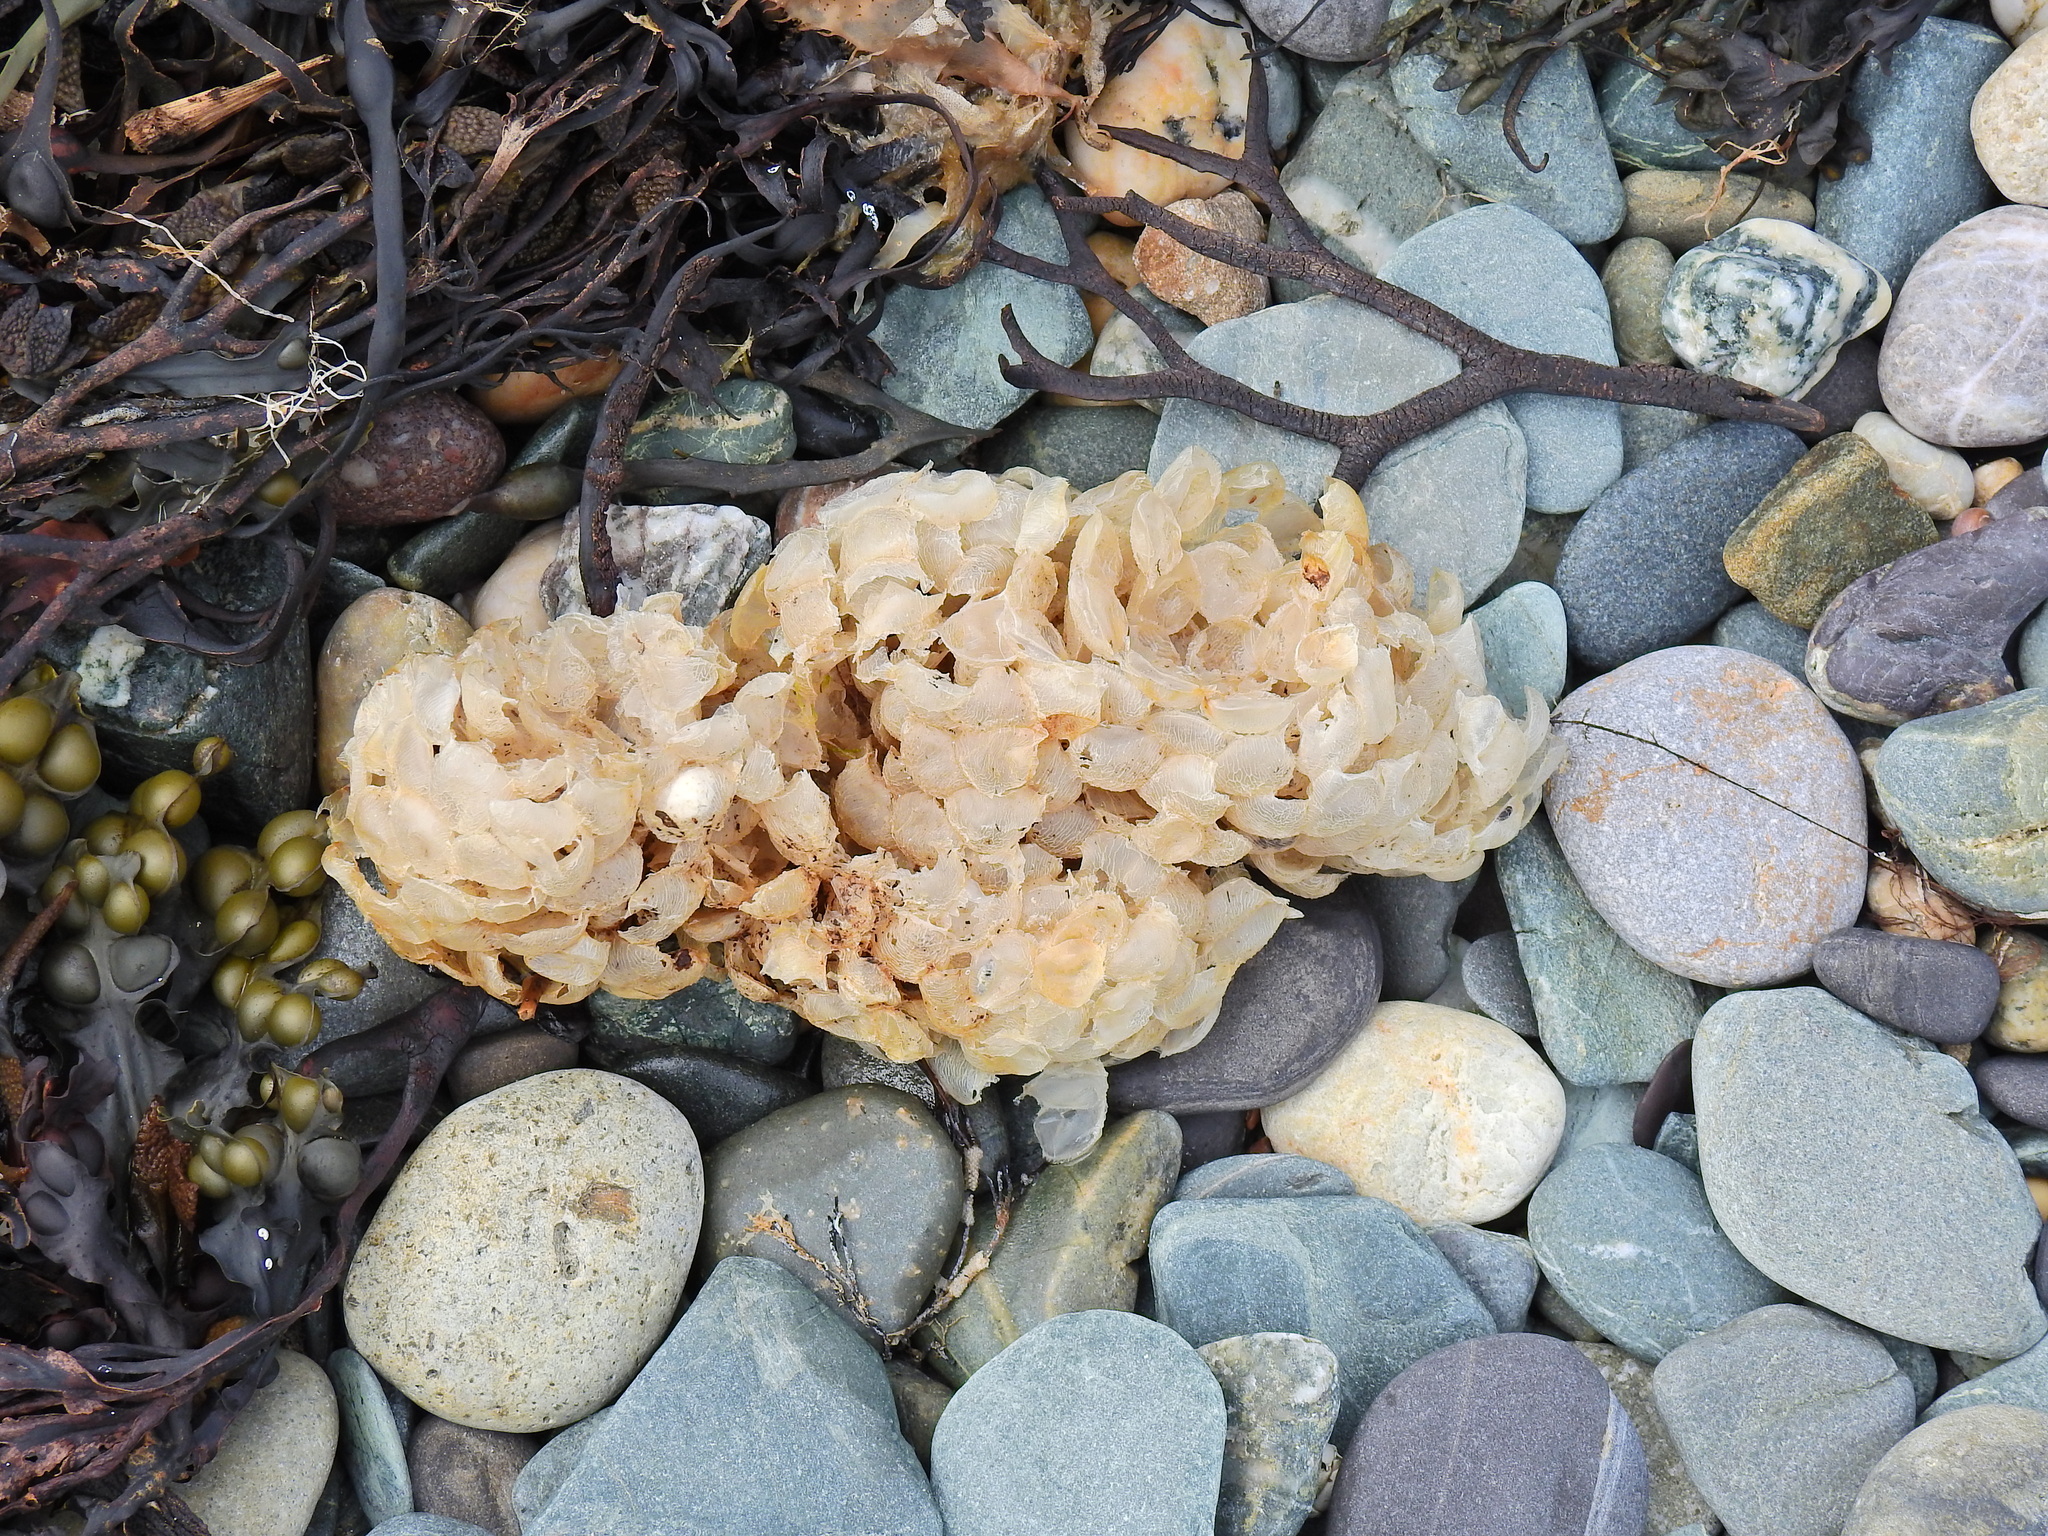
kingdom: Animalia
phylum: Mollusca
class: Gastropoda
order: Neogastropoda
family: Buccinidae
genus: Buccinum
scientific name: Buccinum undatum
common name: Common whelk
